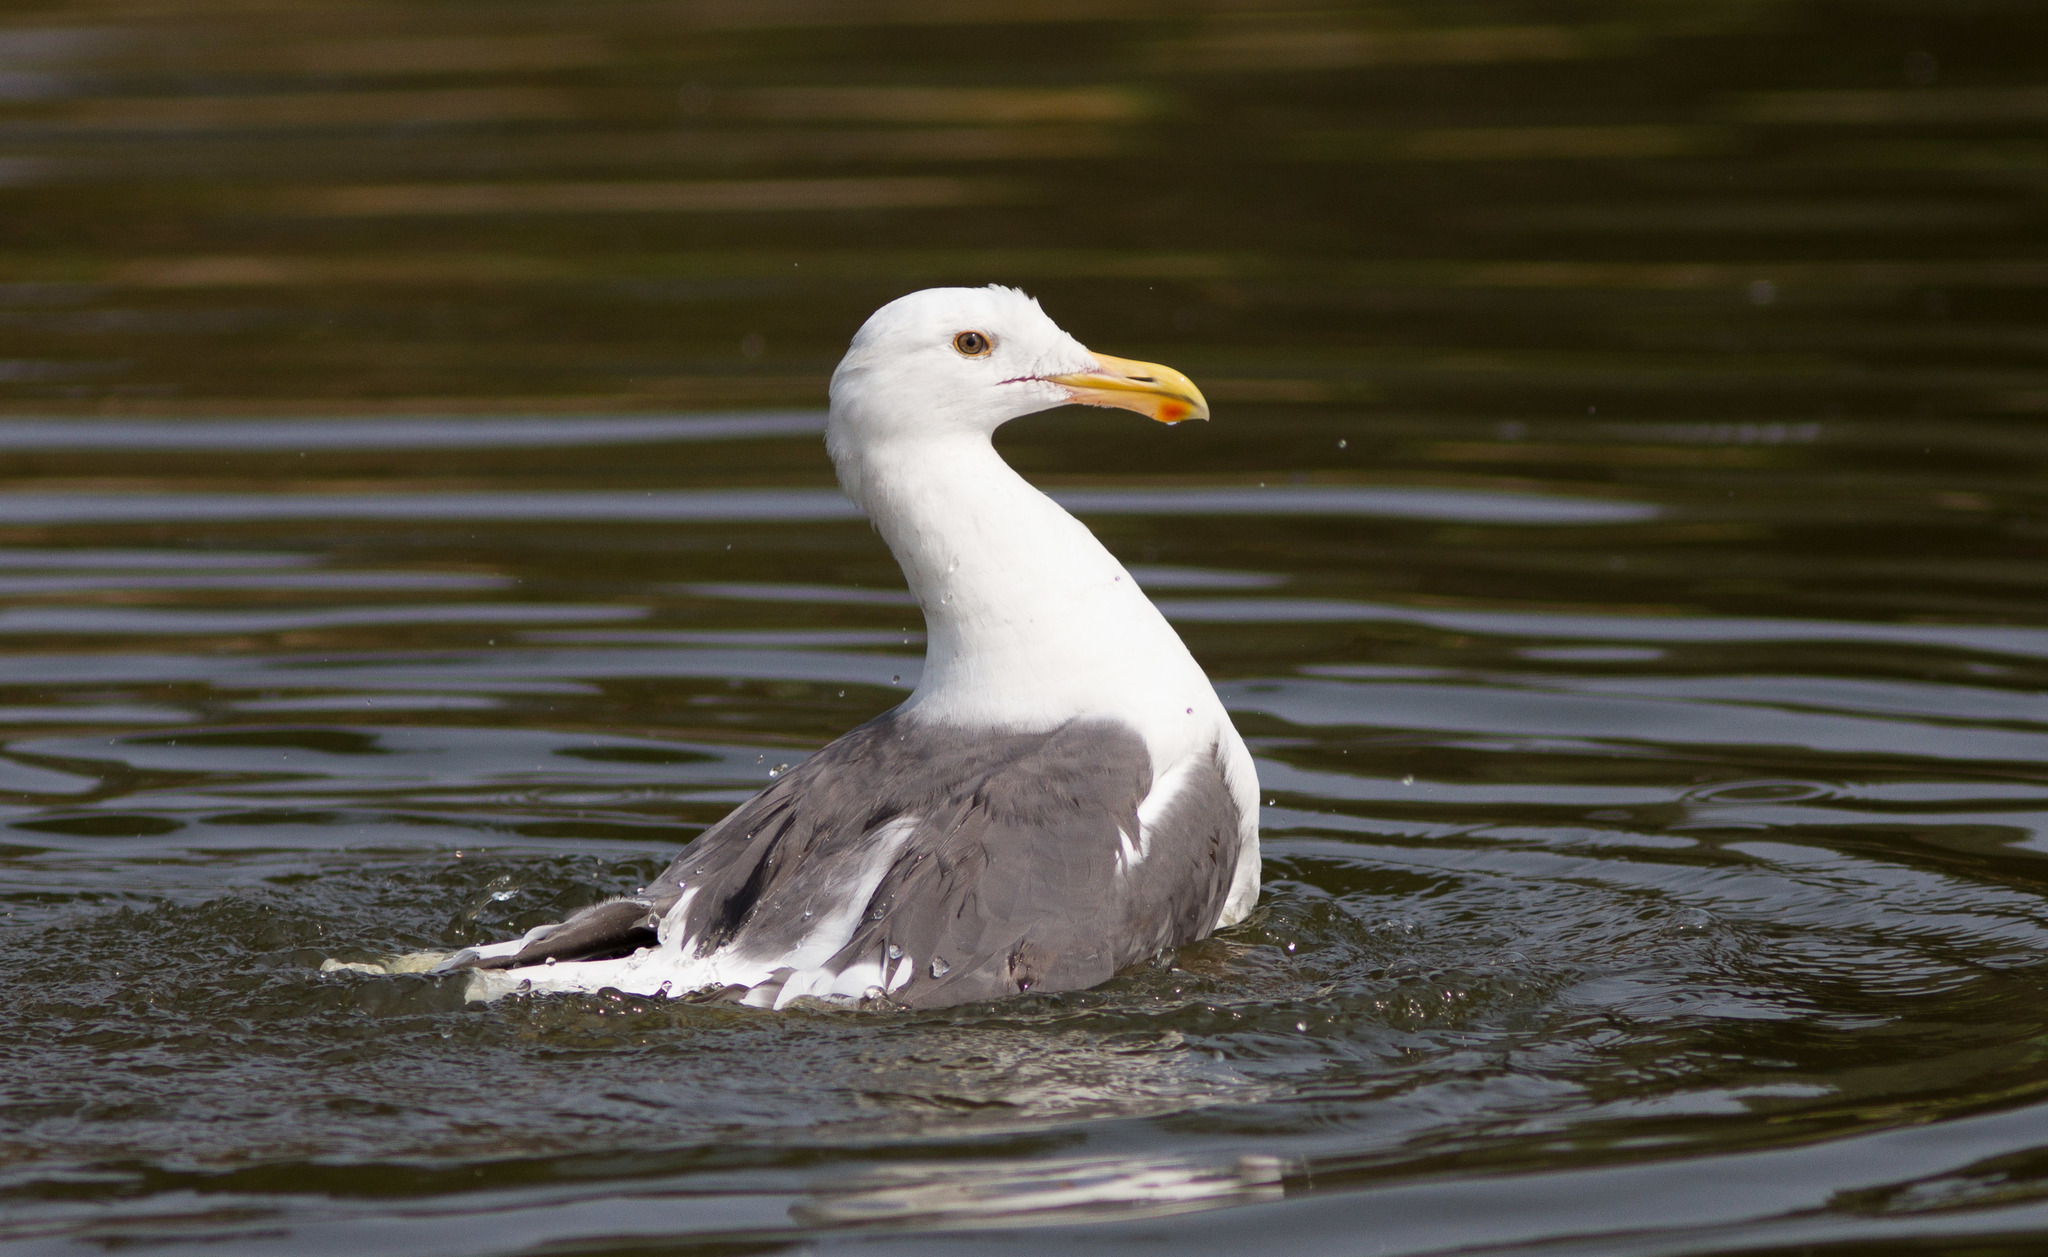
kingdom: Animalia
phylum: Chordata
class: Aves
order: Charadriiformes
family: Laridae
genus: Larus
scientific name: Larus occidentalis
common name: Western gull
